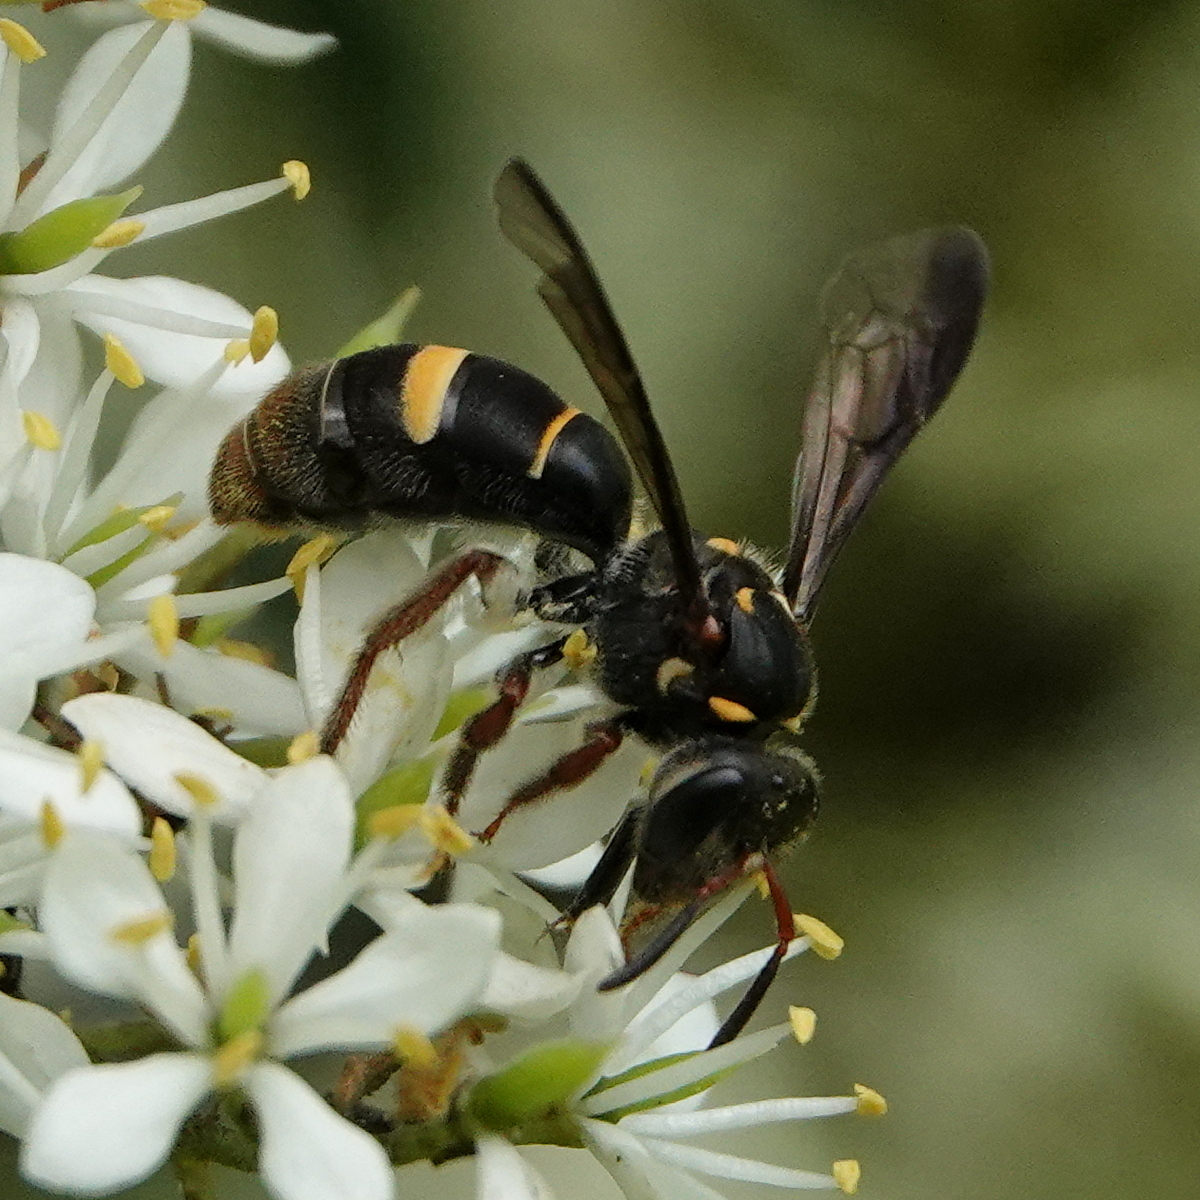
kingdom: Animalia
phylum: Arthropoda
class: Insecta
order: Hymenoptera
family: Halictidae
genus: Lasioglossum
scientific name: Lasioglossum peraustrale
